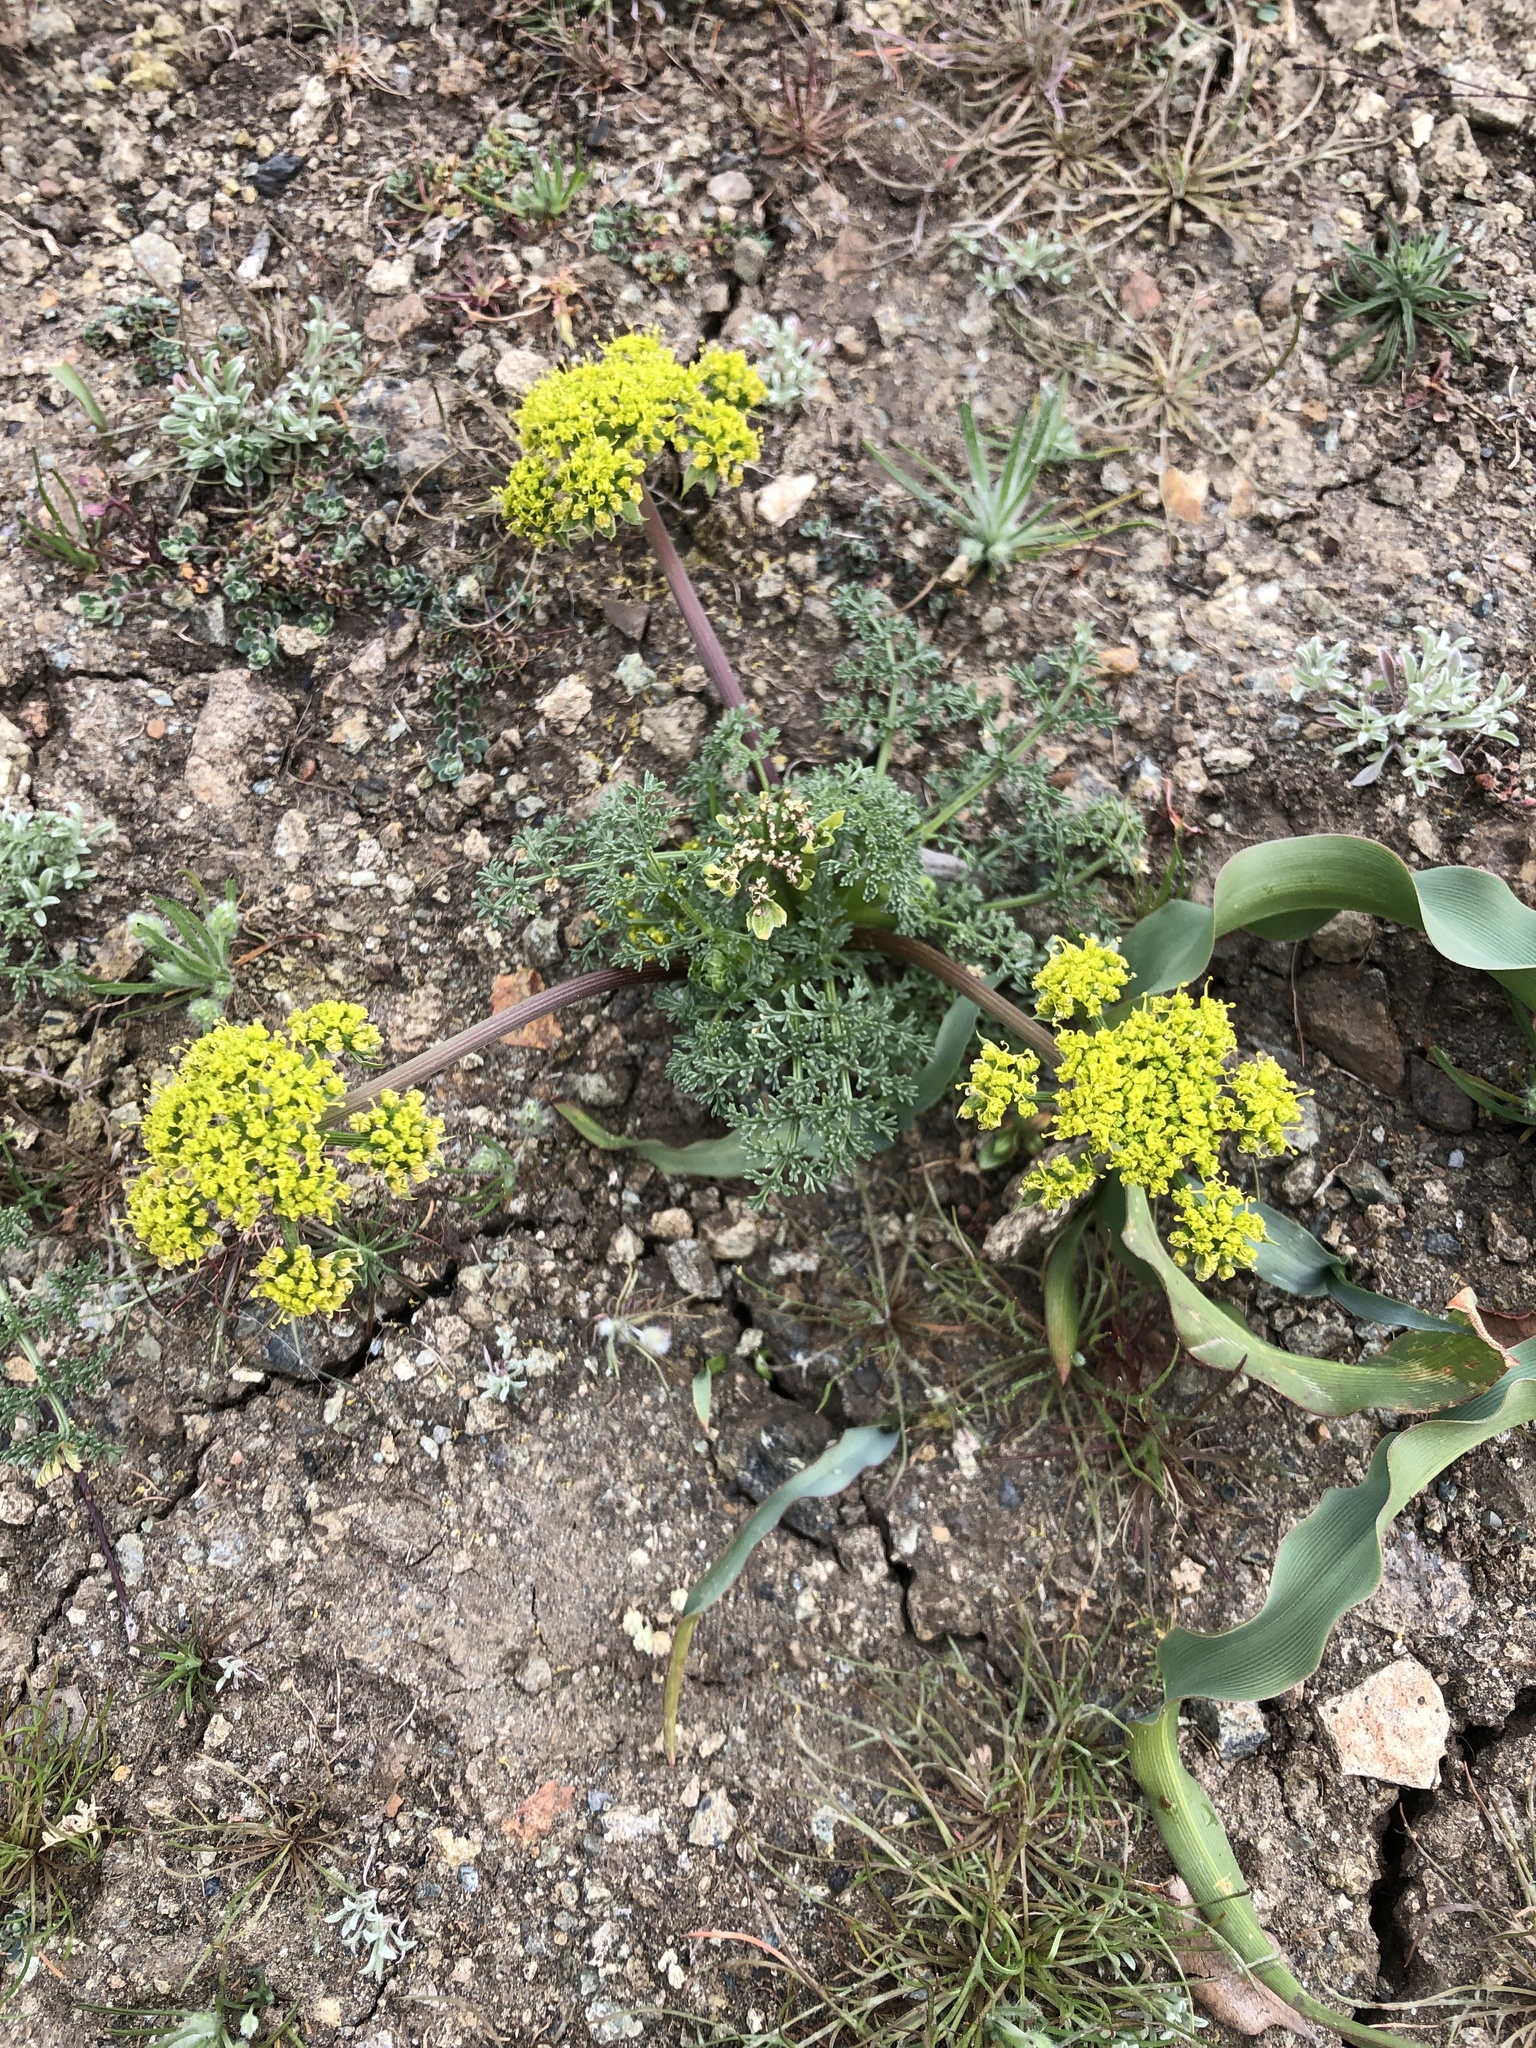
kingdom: Plantae
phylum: Tracheophyta
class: Magnoliopsida
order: Apiales
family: Apiaceae
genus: Lomatium
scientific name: Lomatium dasycarpum
